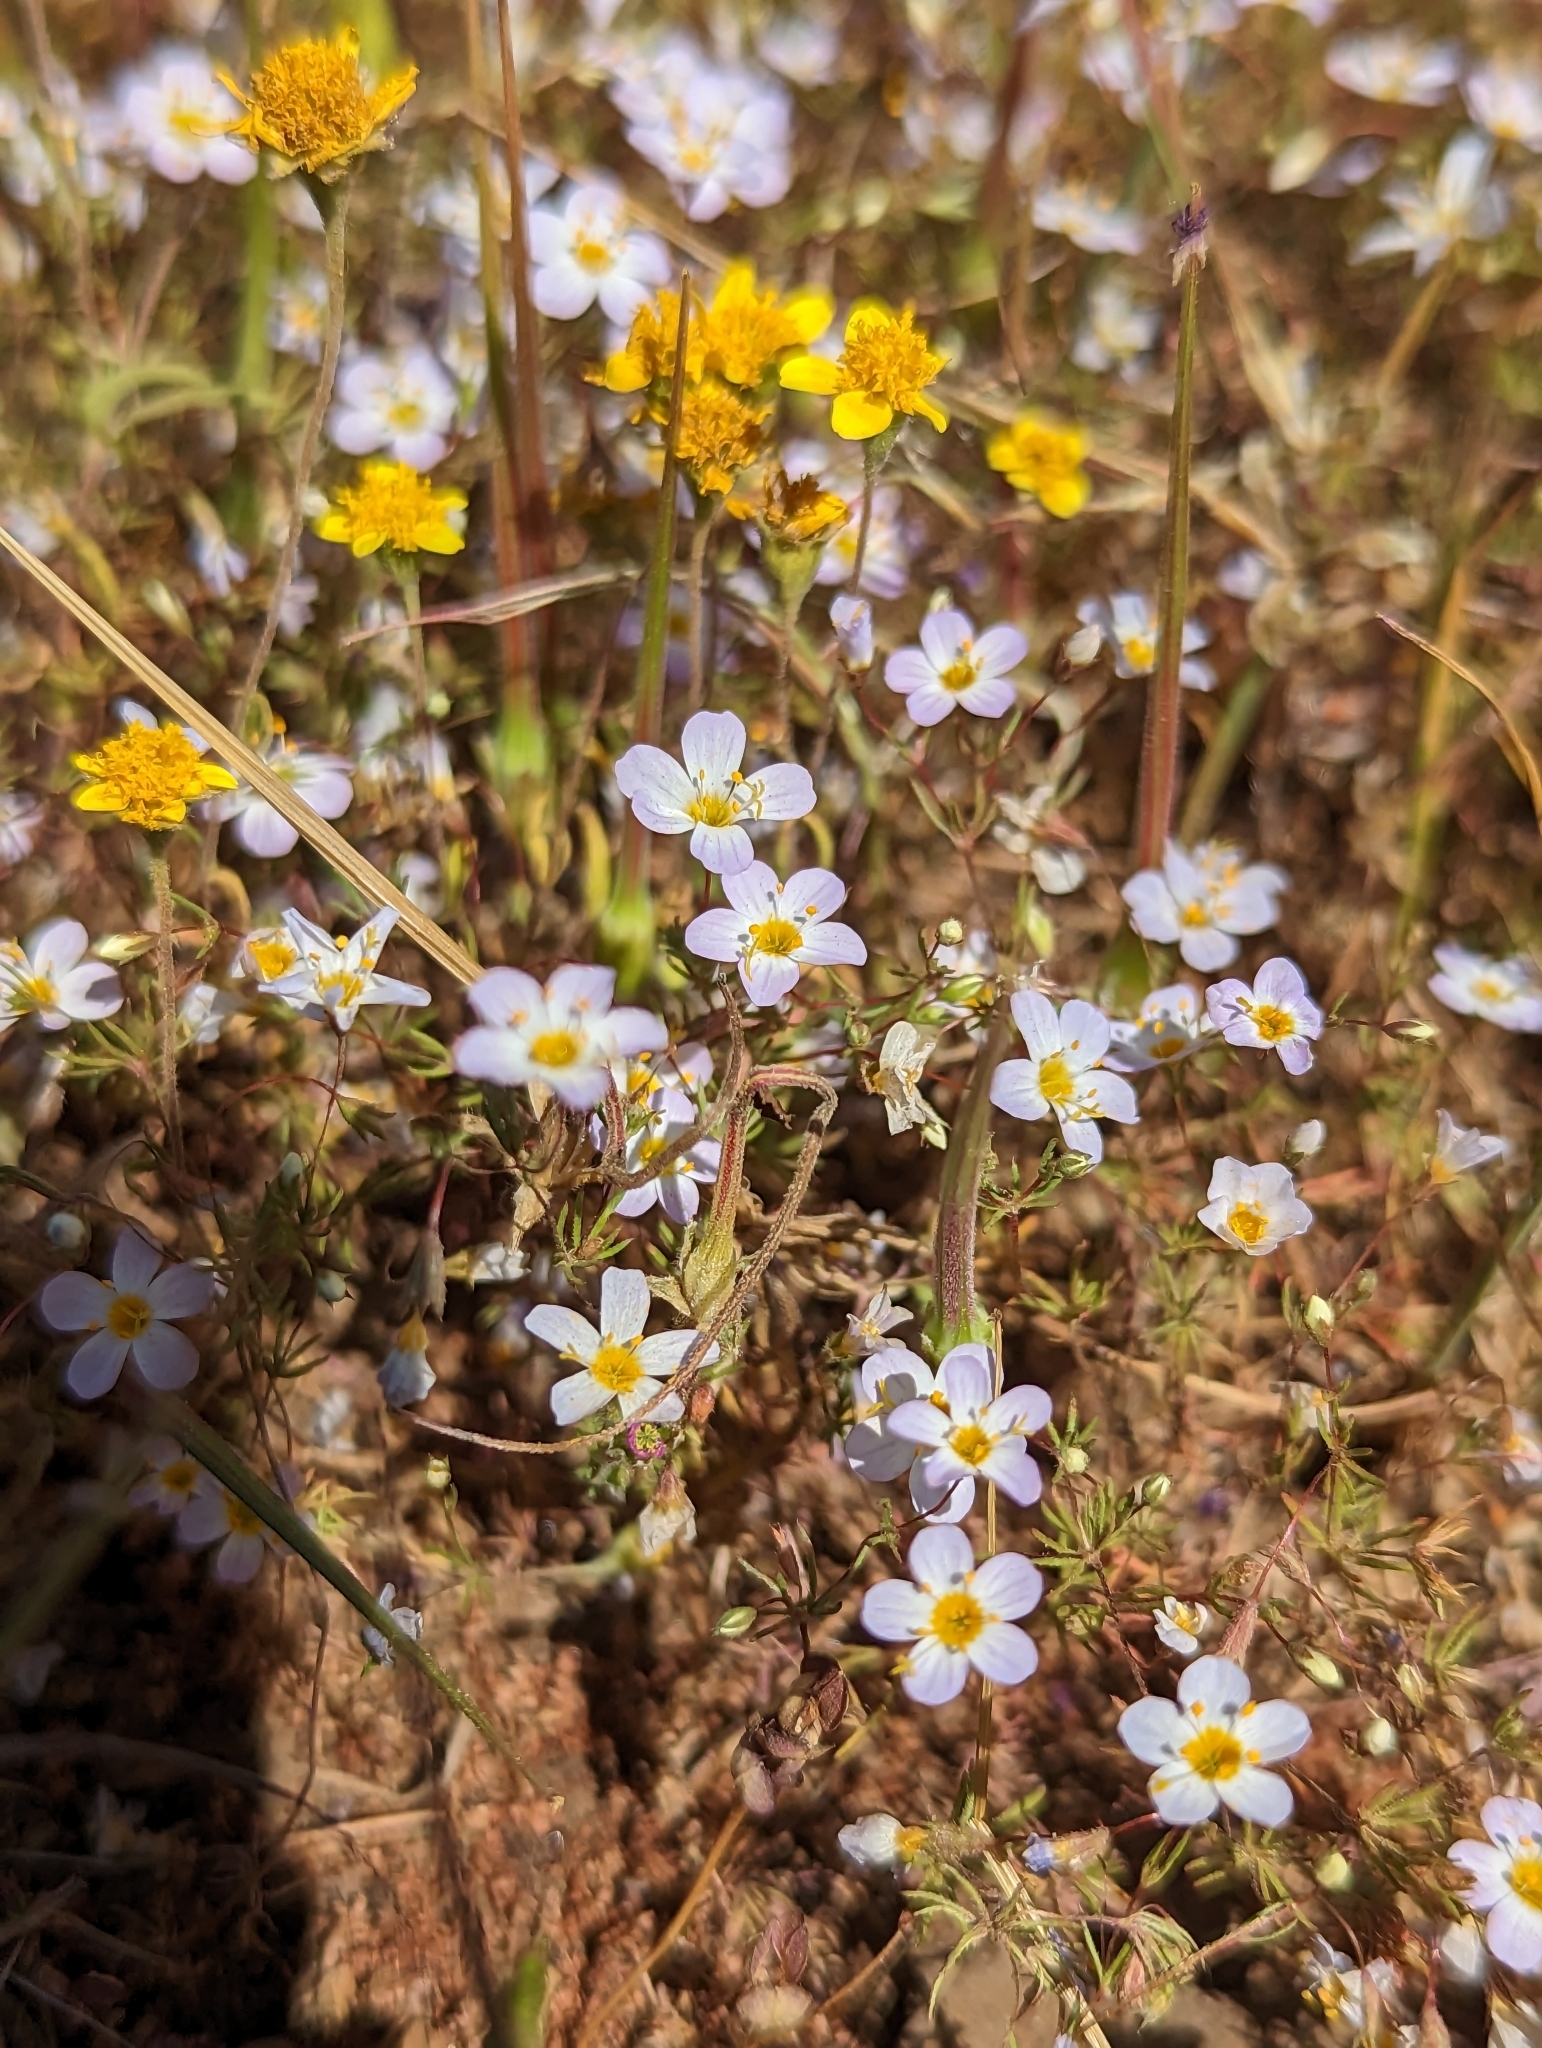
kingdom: Plantae
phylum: Tracheophyta
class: Magnoliopsida
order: Ericales
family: Polemoniaceae
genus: Leptosiphon
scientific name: Leptosiphon filipes
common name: Thread linanthus
